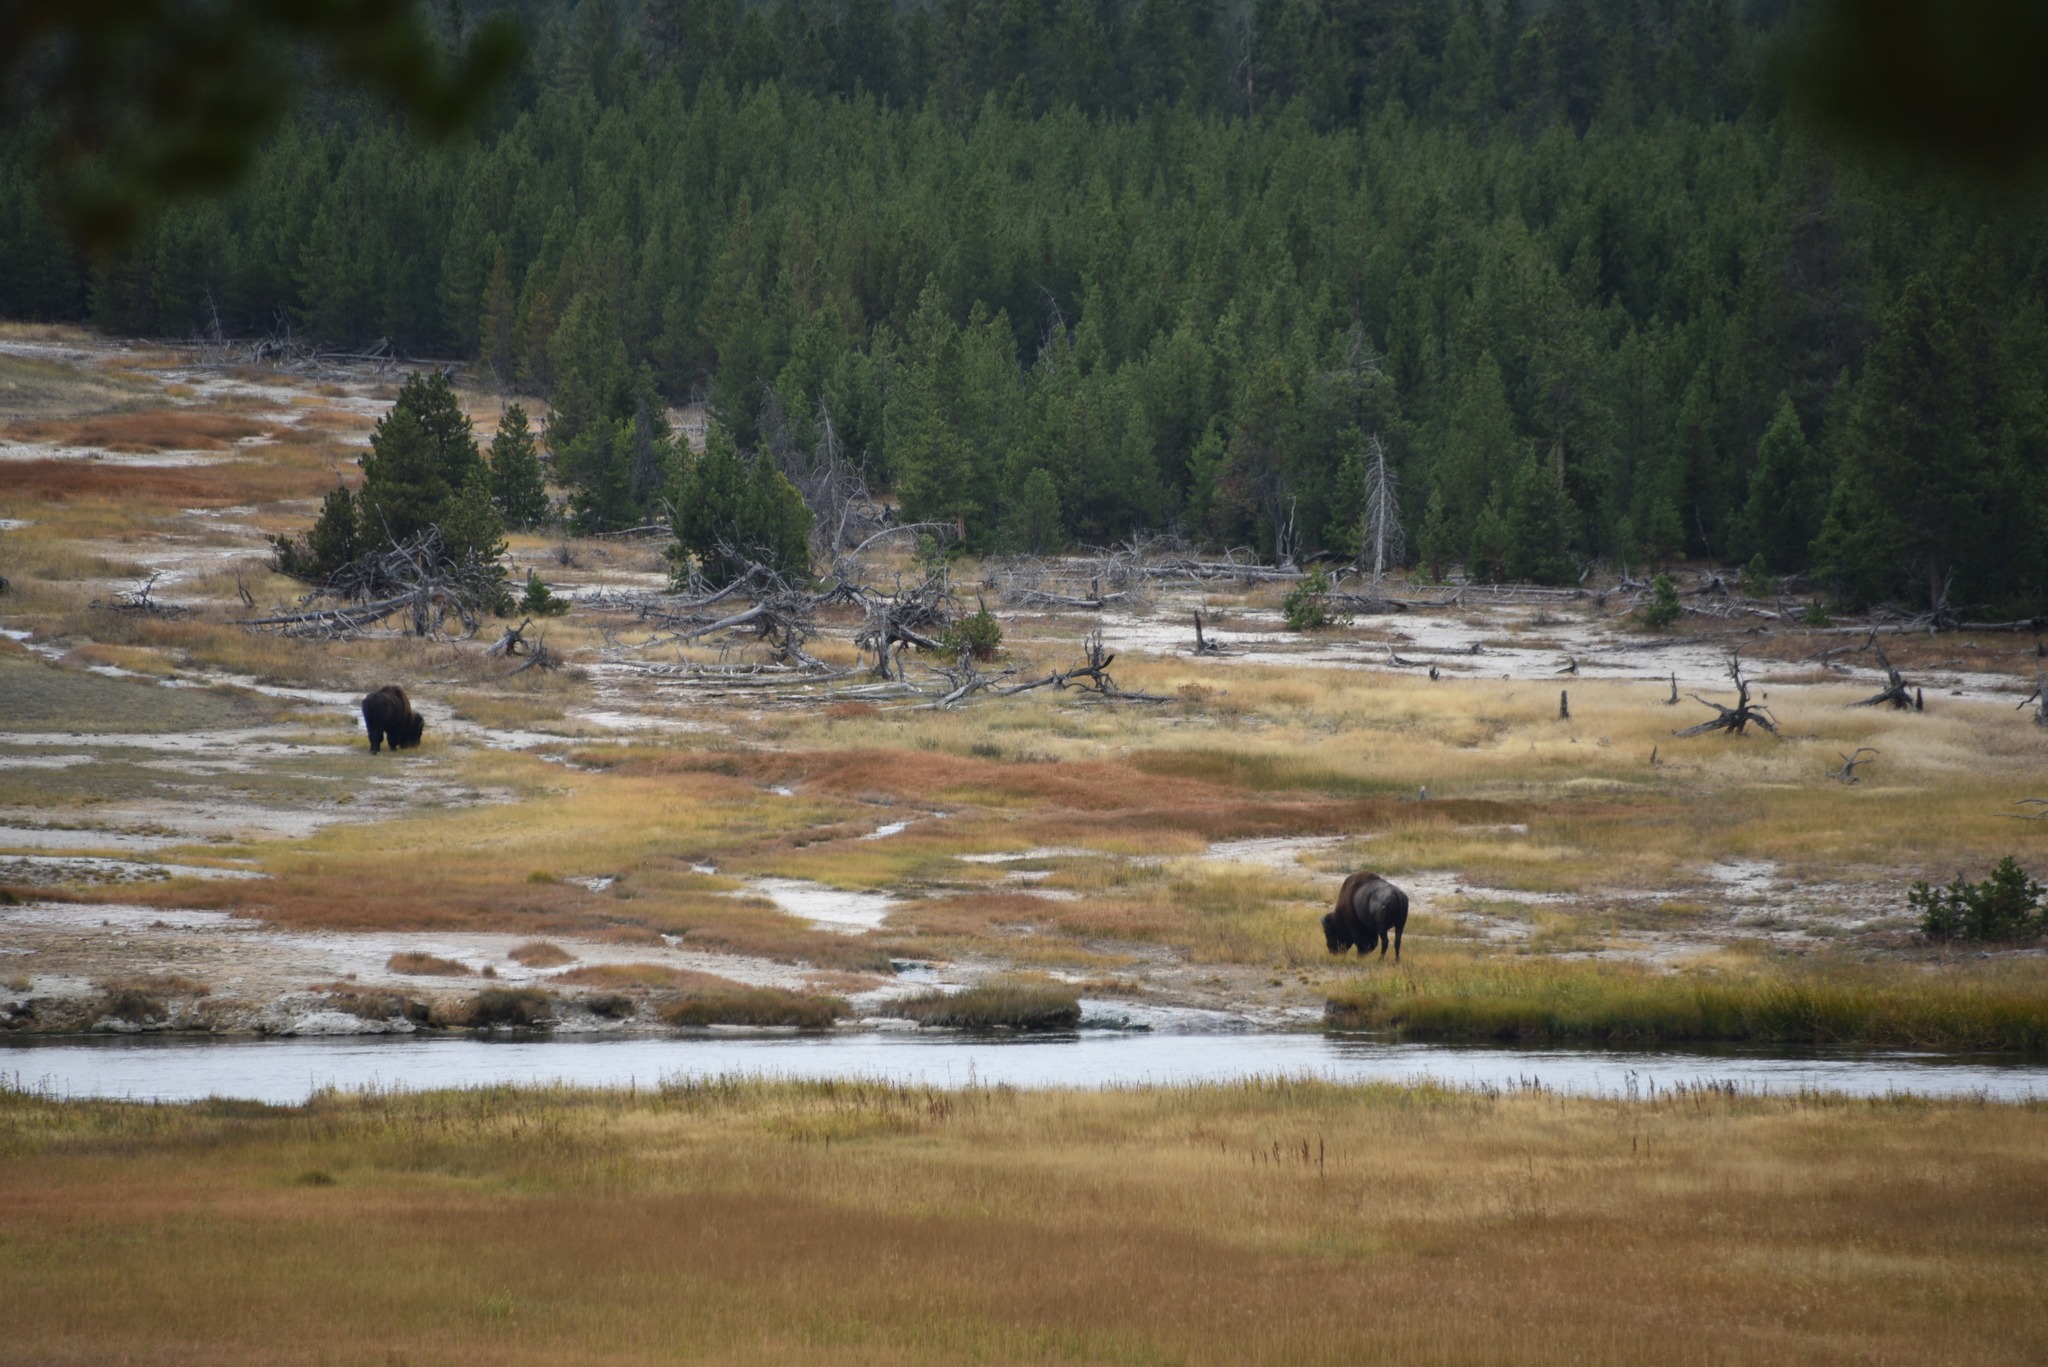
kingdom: Animalia
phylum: Chordata
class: Mammalia
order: Artiodactyla
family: Bovidae
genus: Bison
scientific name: Bison bison
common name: American bison
